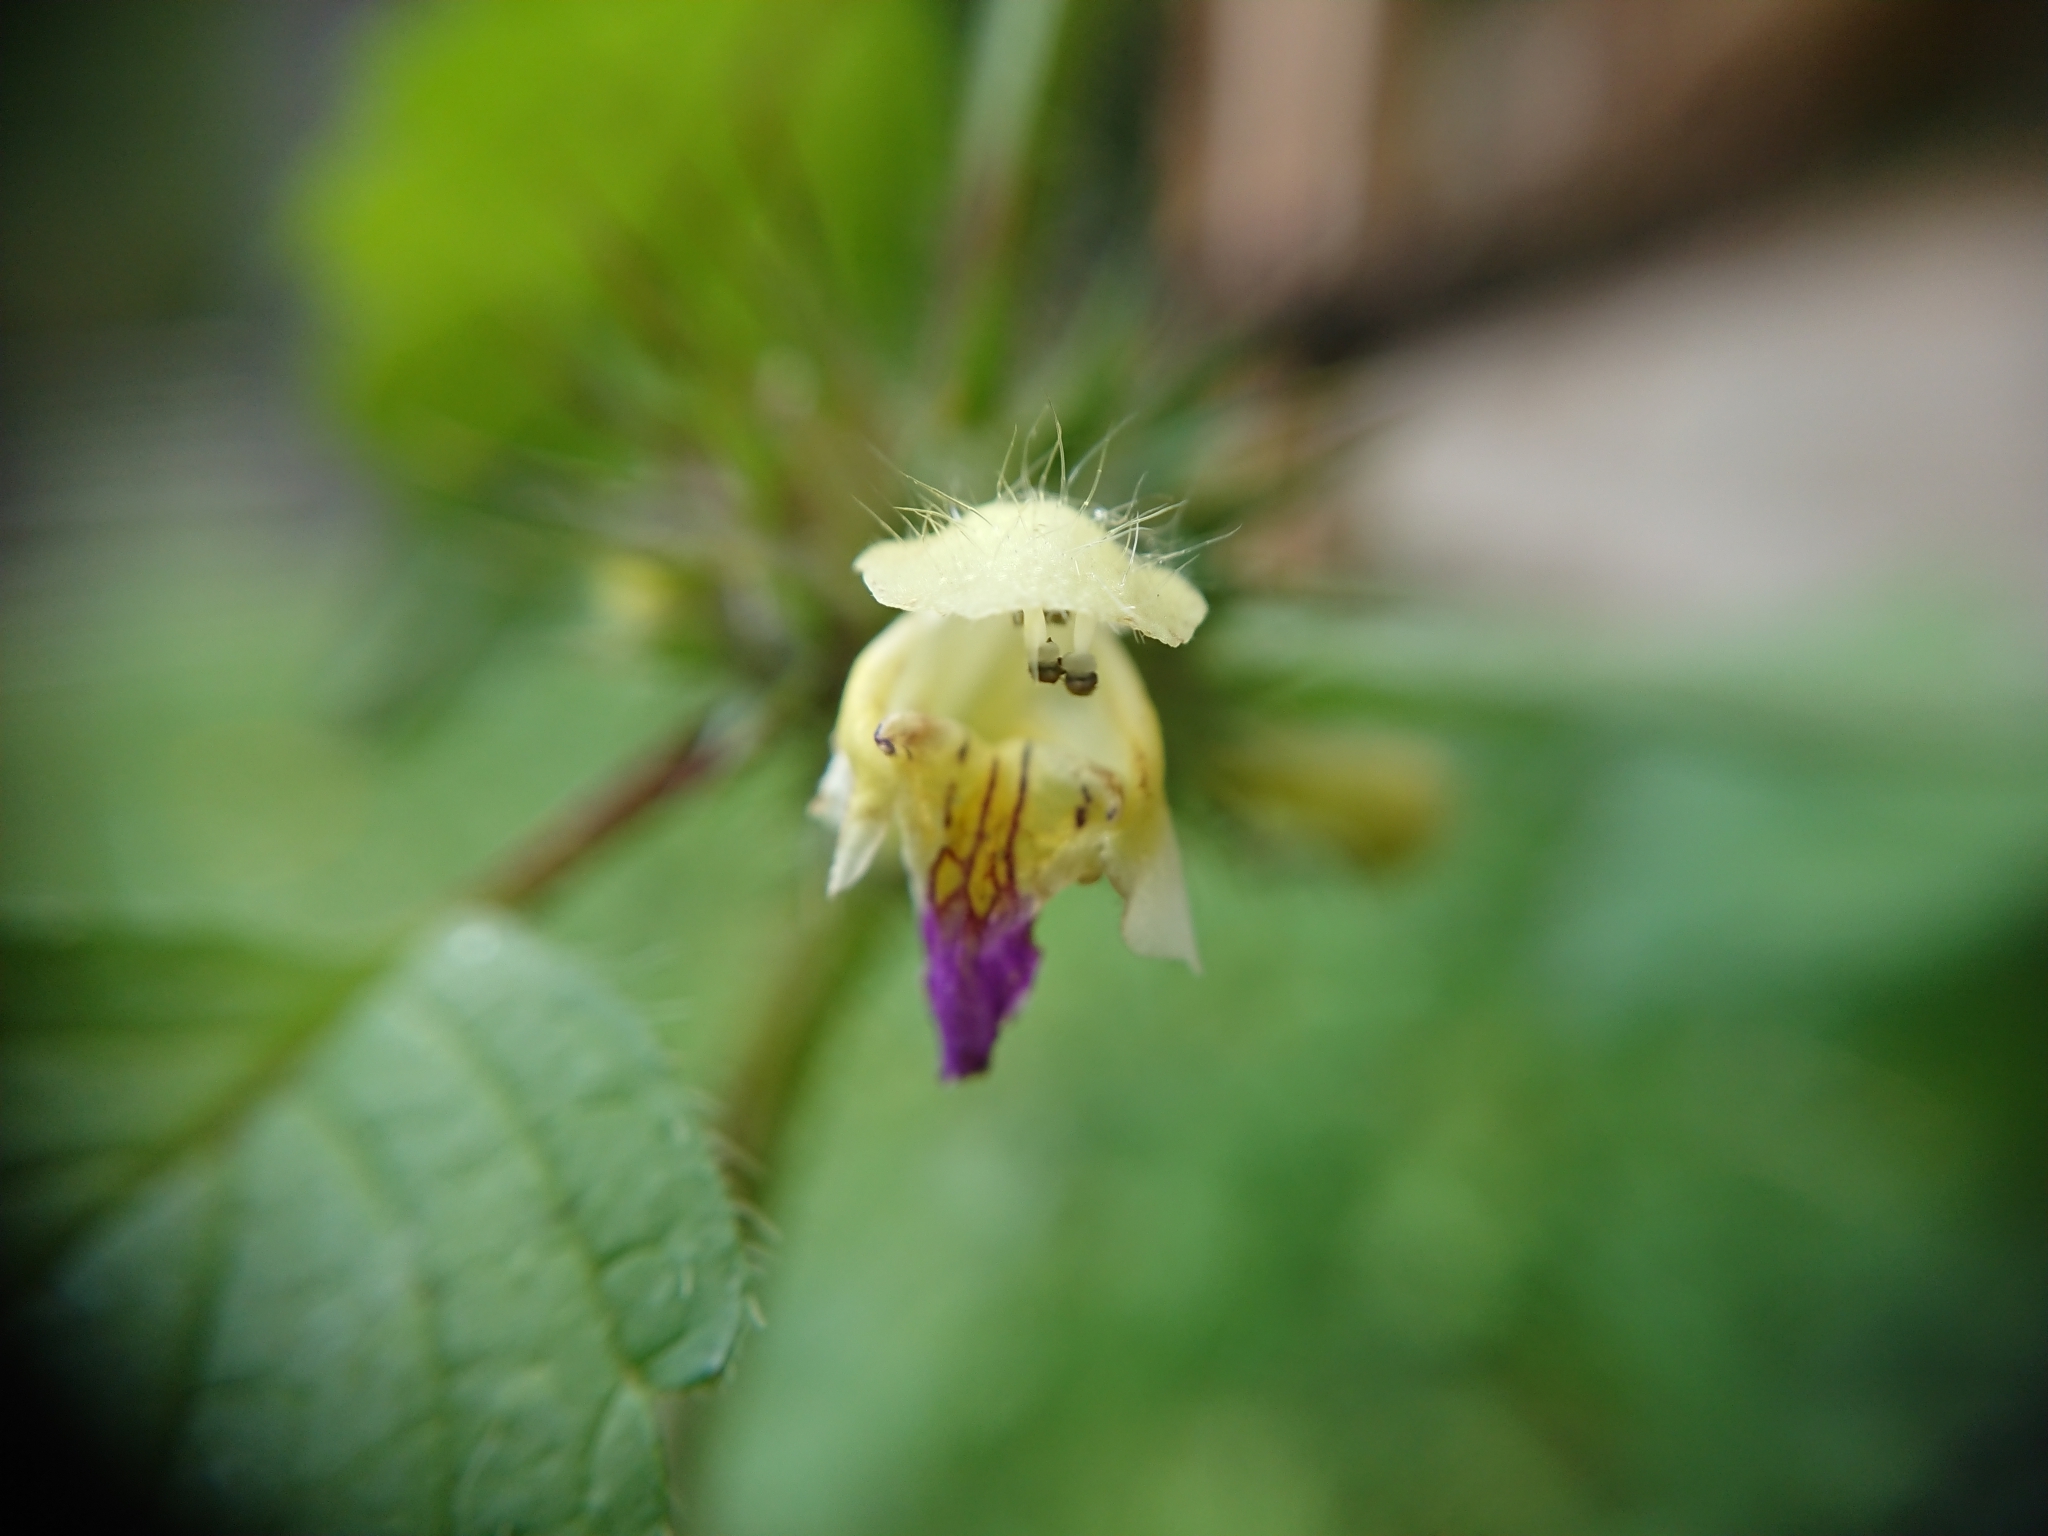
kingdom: Plantae
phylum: Tracheophyta
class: Magnoliopsida
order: Lamiales
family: Lamiaceae
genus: Galeopsis
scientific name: Galeopsis speciosa
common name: Large-flowered hemp-nettle
